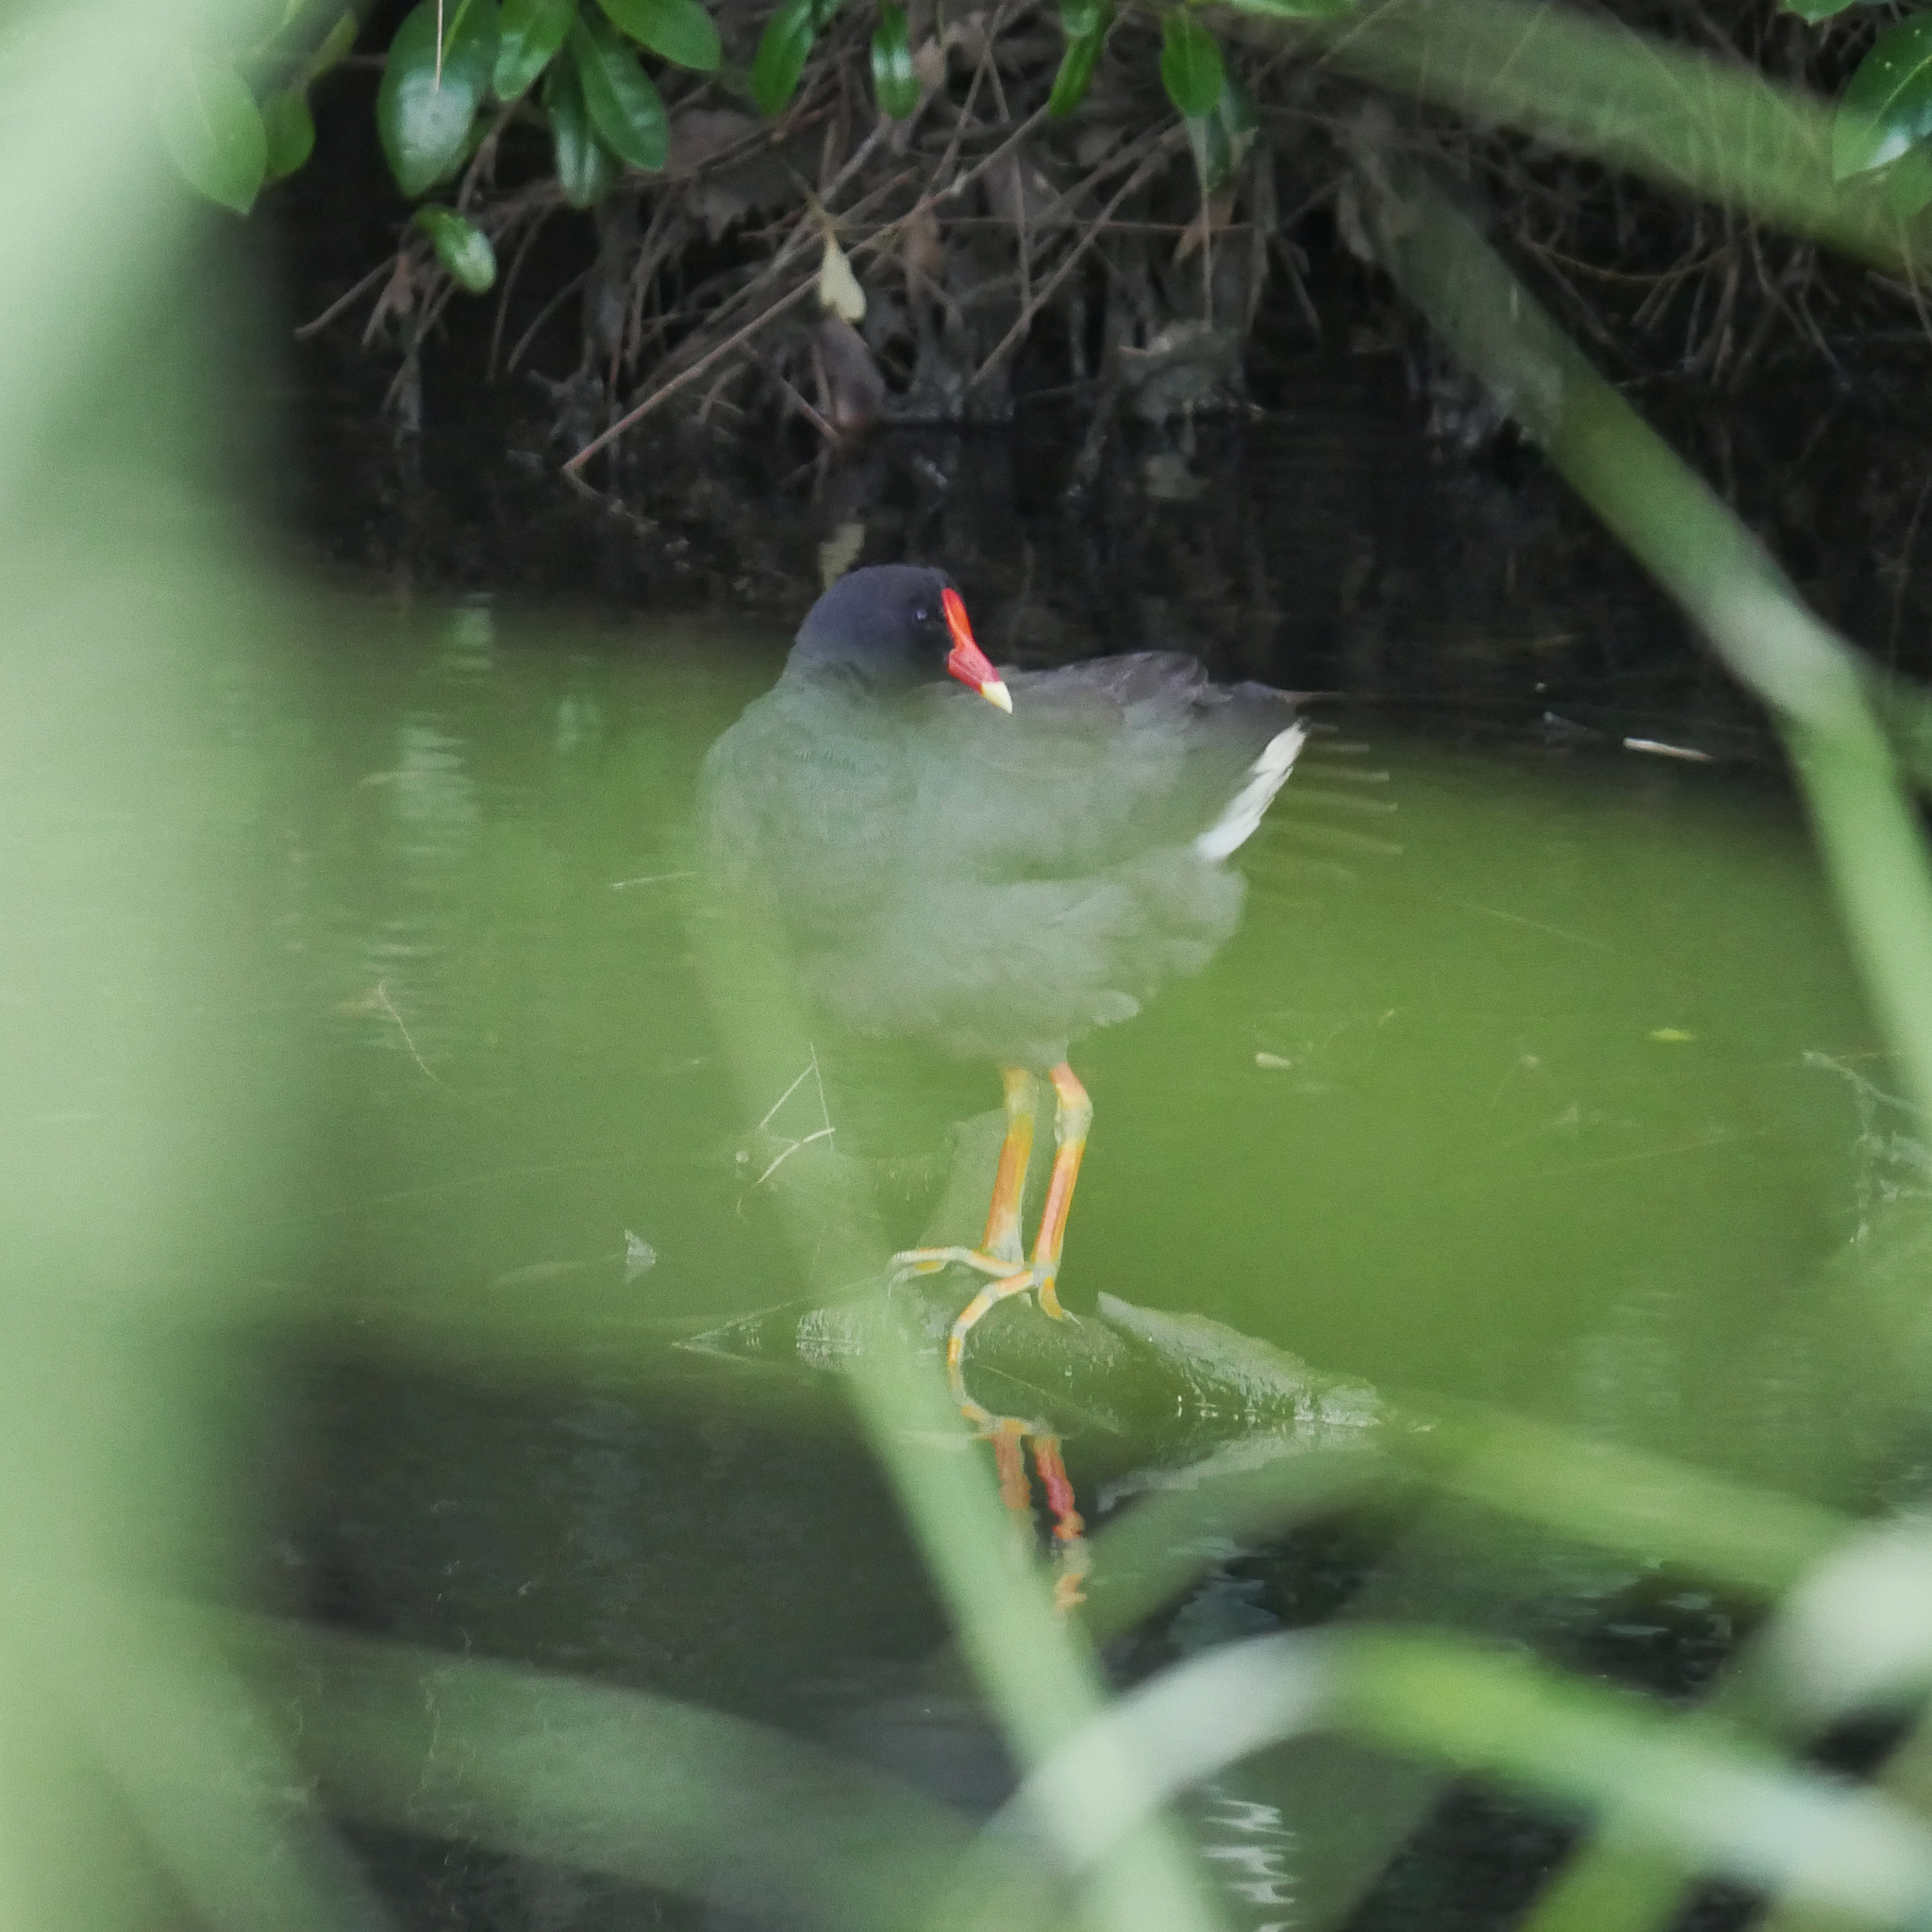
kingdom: Animalia
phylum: Chordata
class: Aves
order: Gruiformes
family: Rallidae
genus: Gallinula
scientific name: Gallinula tenebrosa
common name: Dusky moorhen
